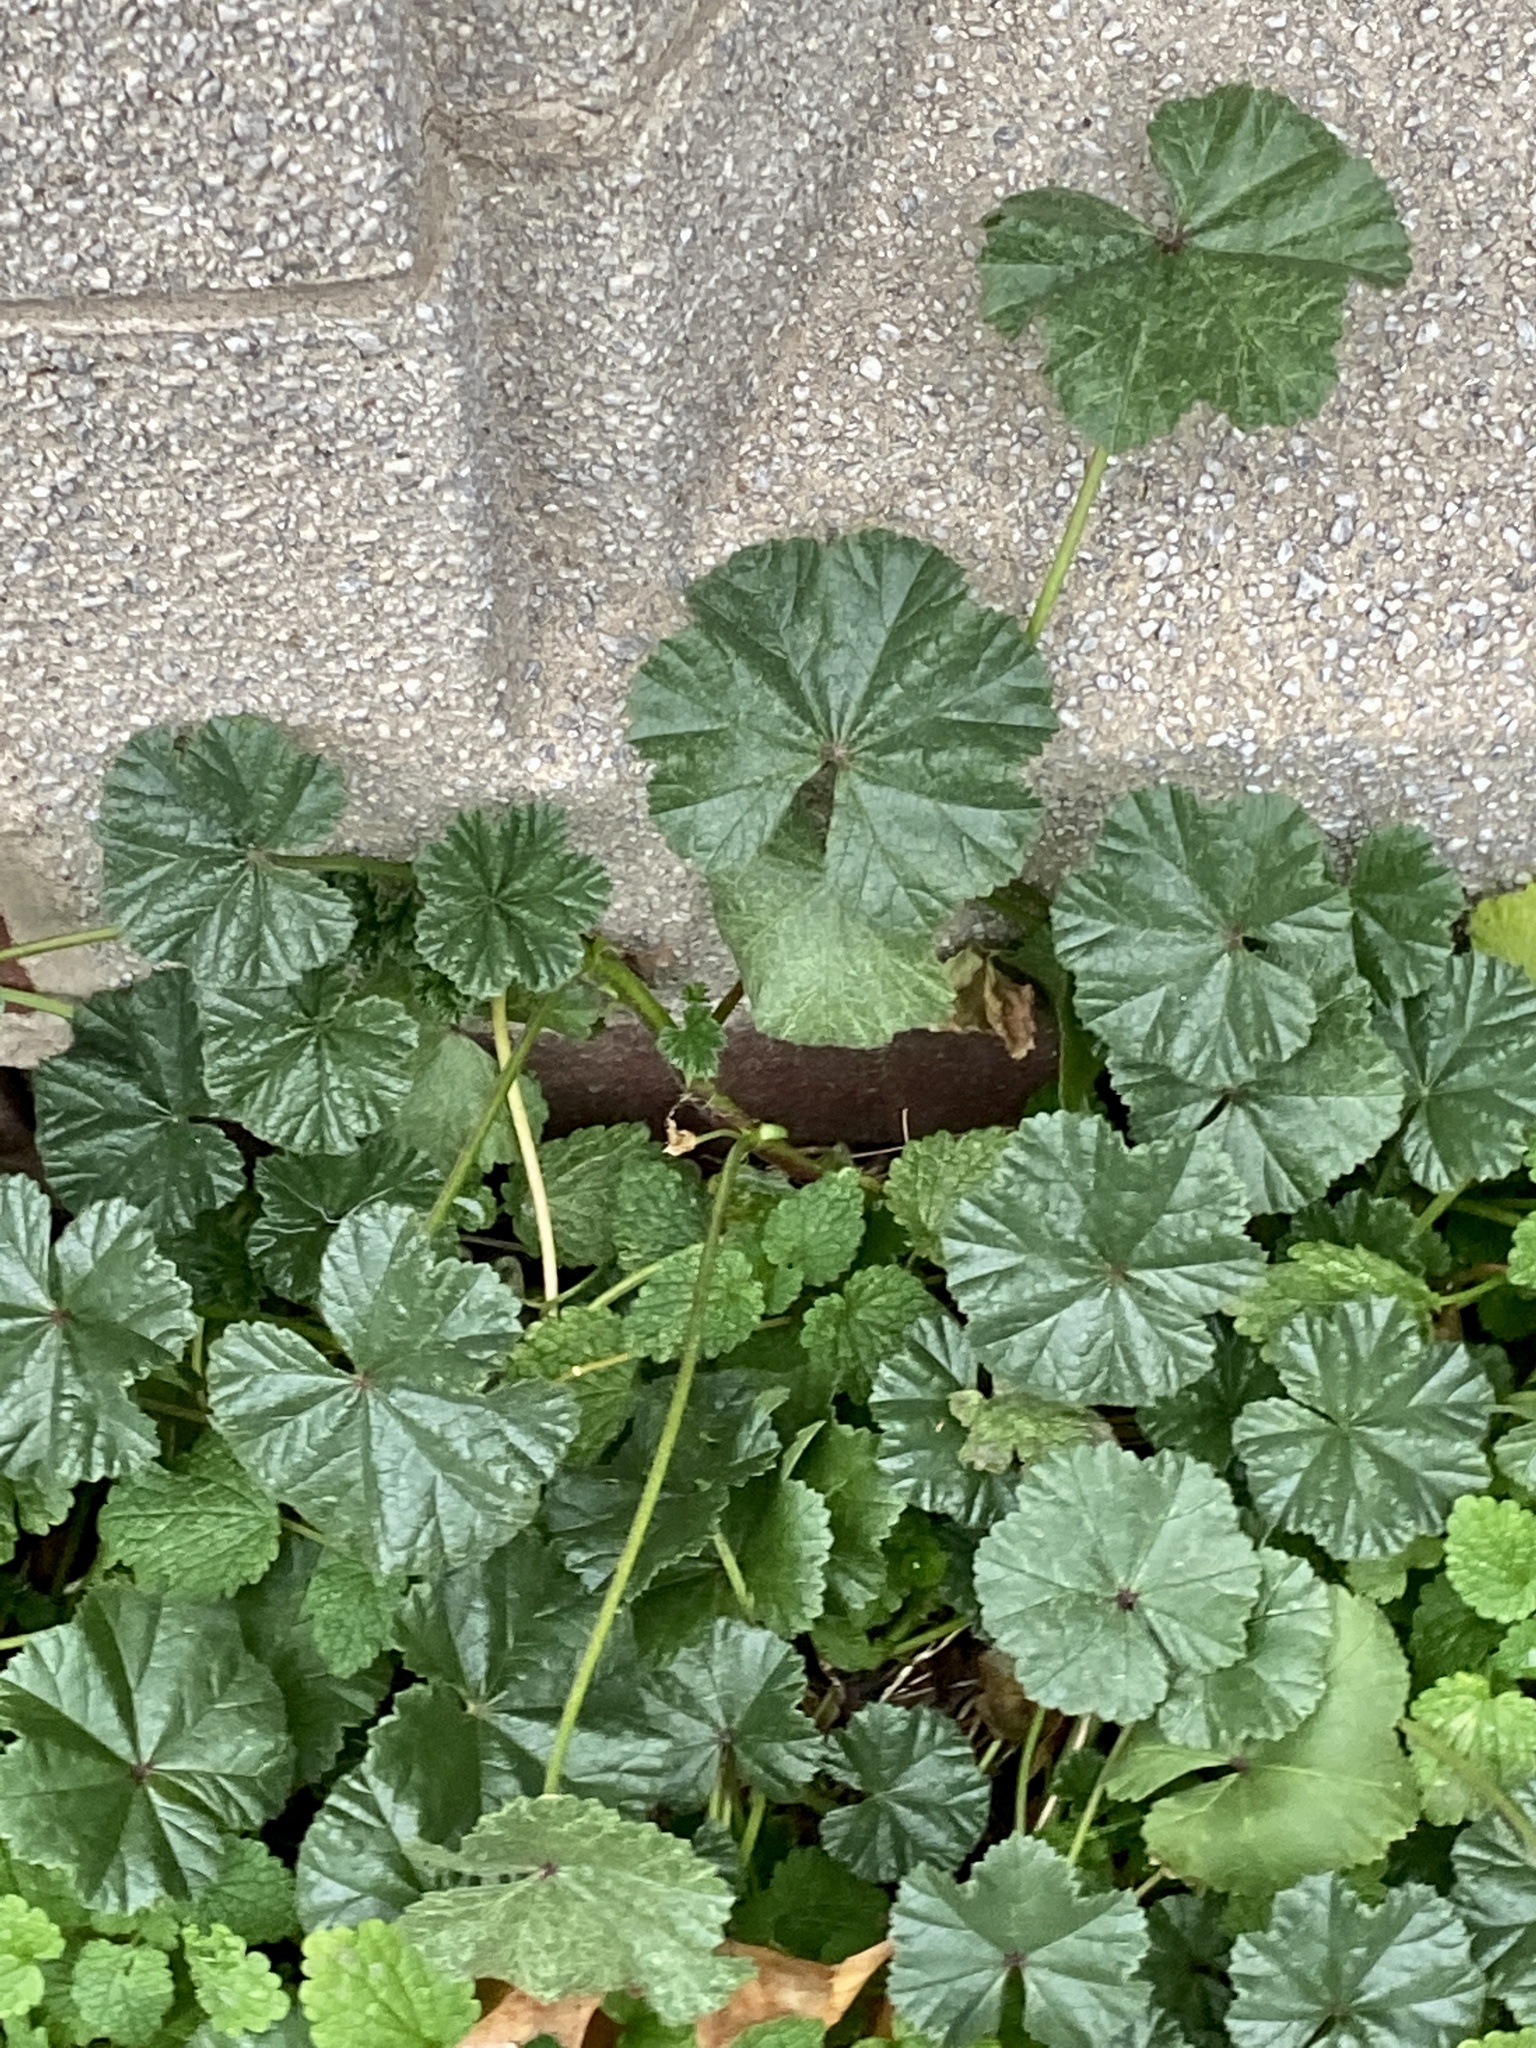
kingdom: Plantae
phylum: Tracheophyta
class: Magnoliopsida
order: Malvales
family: Malvaceae
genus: Malva
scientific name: Malva neglecta
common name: Common mallow
